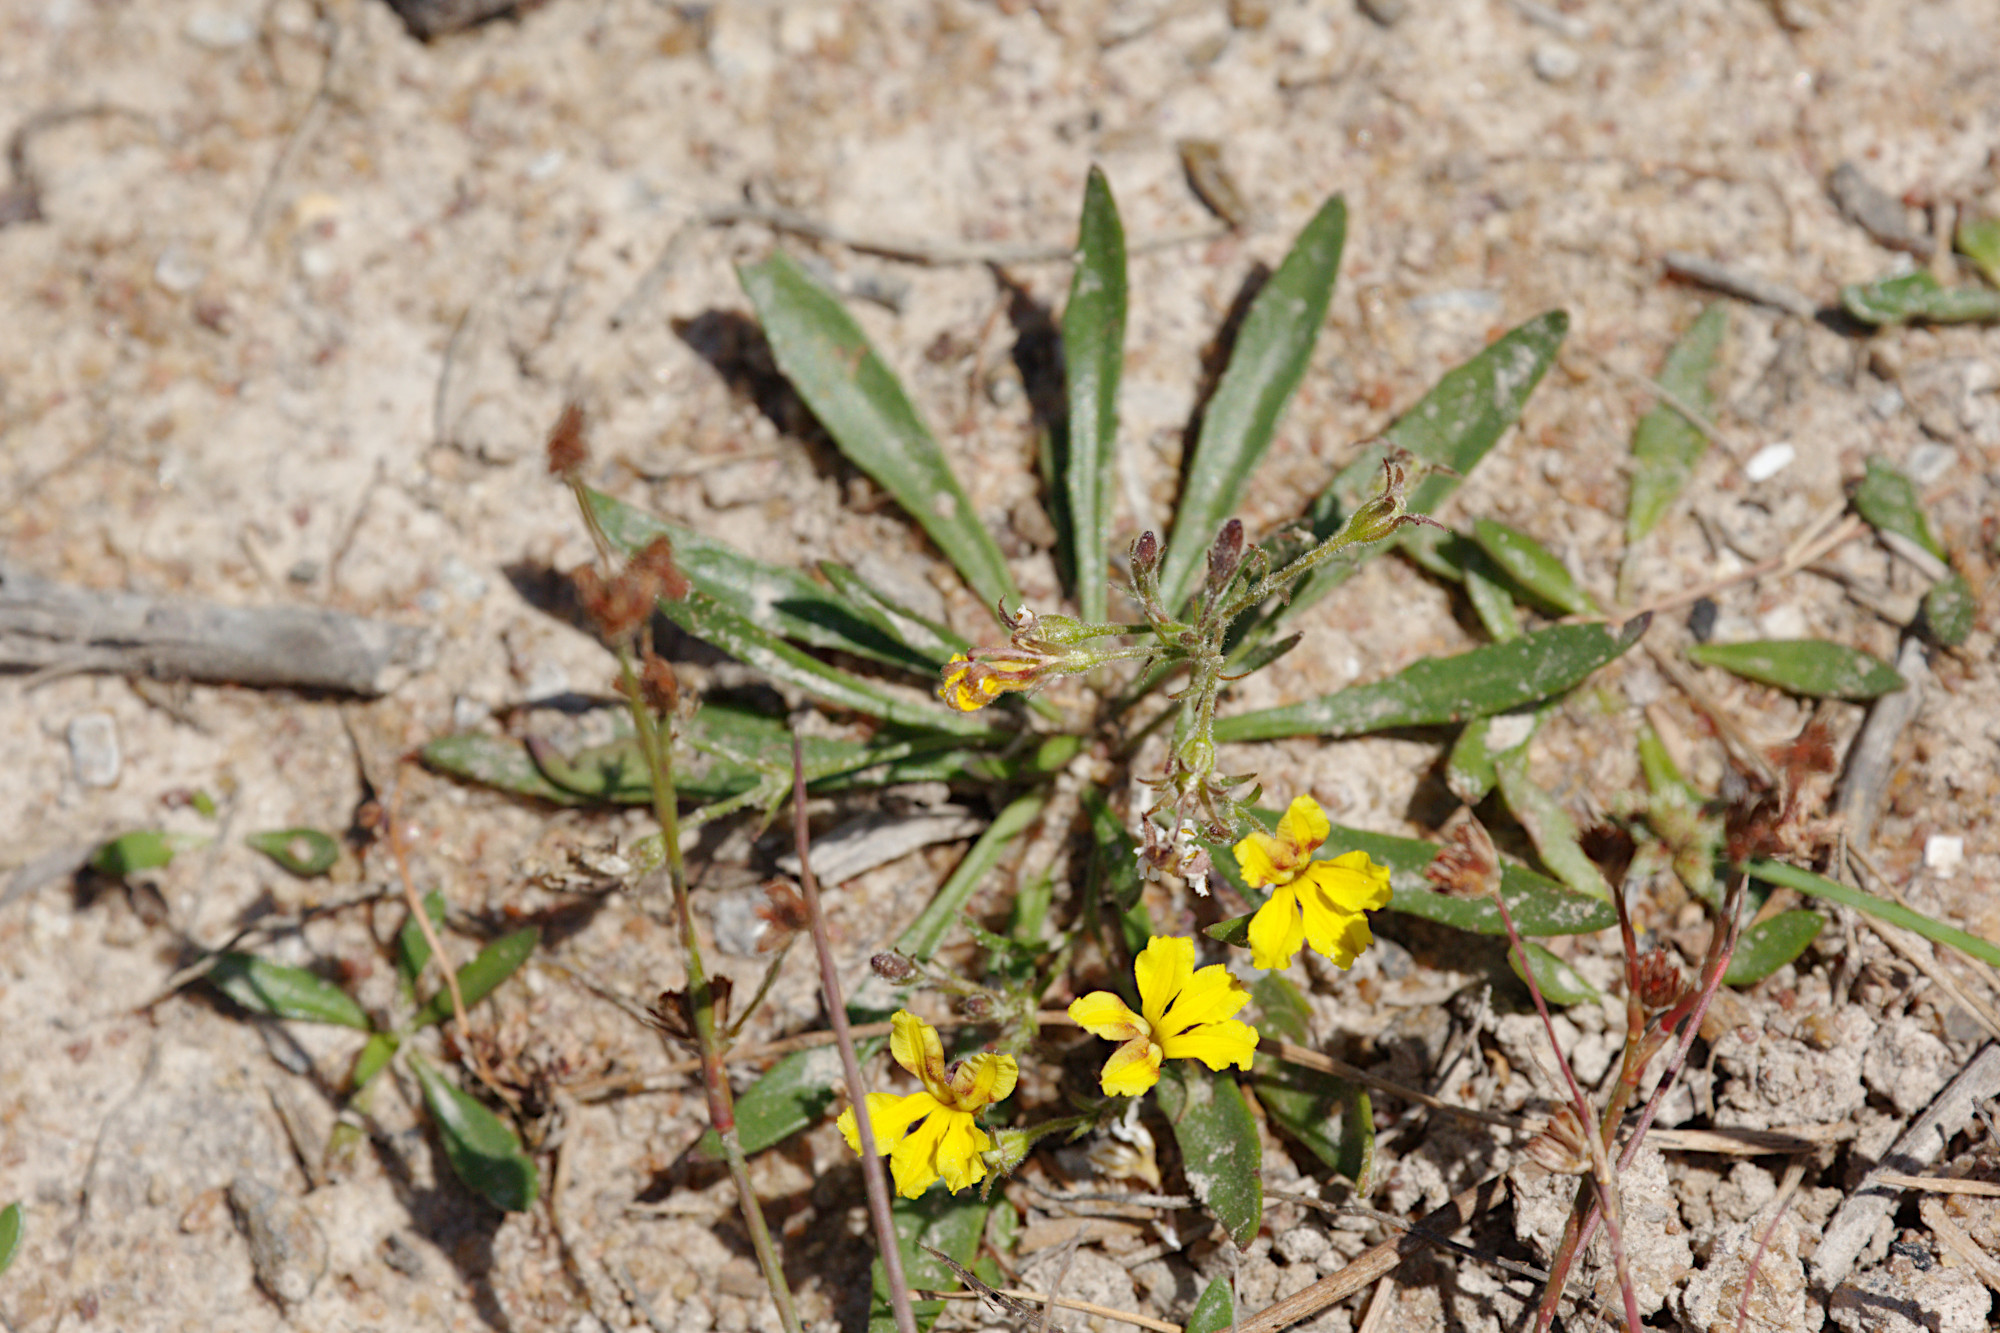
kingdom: Plantae
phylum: Tracheophyta
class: Magnoliopsida
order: Asterales
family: Goodeniaceae
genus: Goodenia
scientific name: Goodenia humilis
